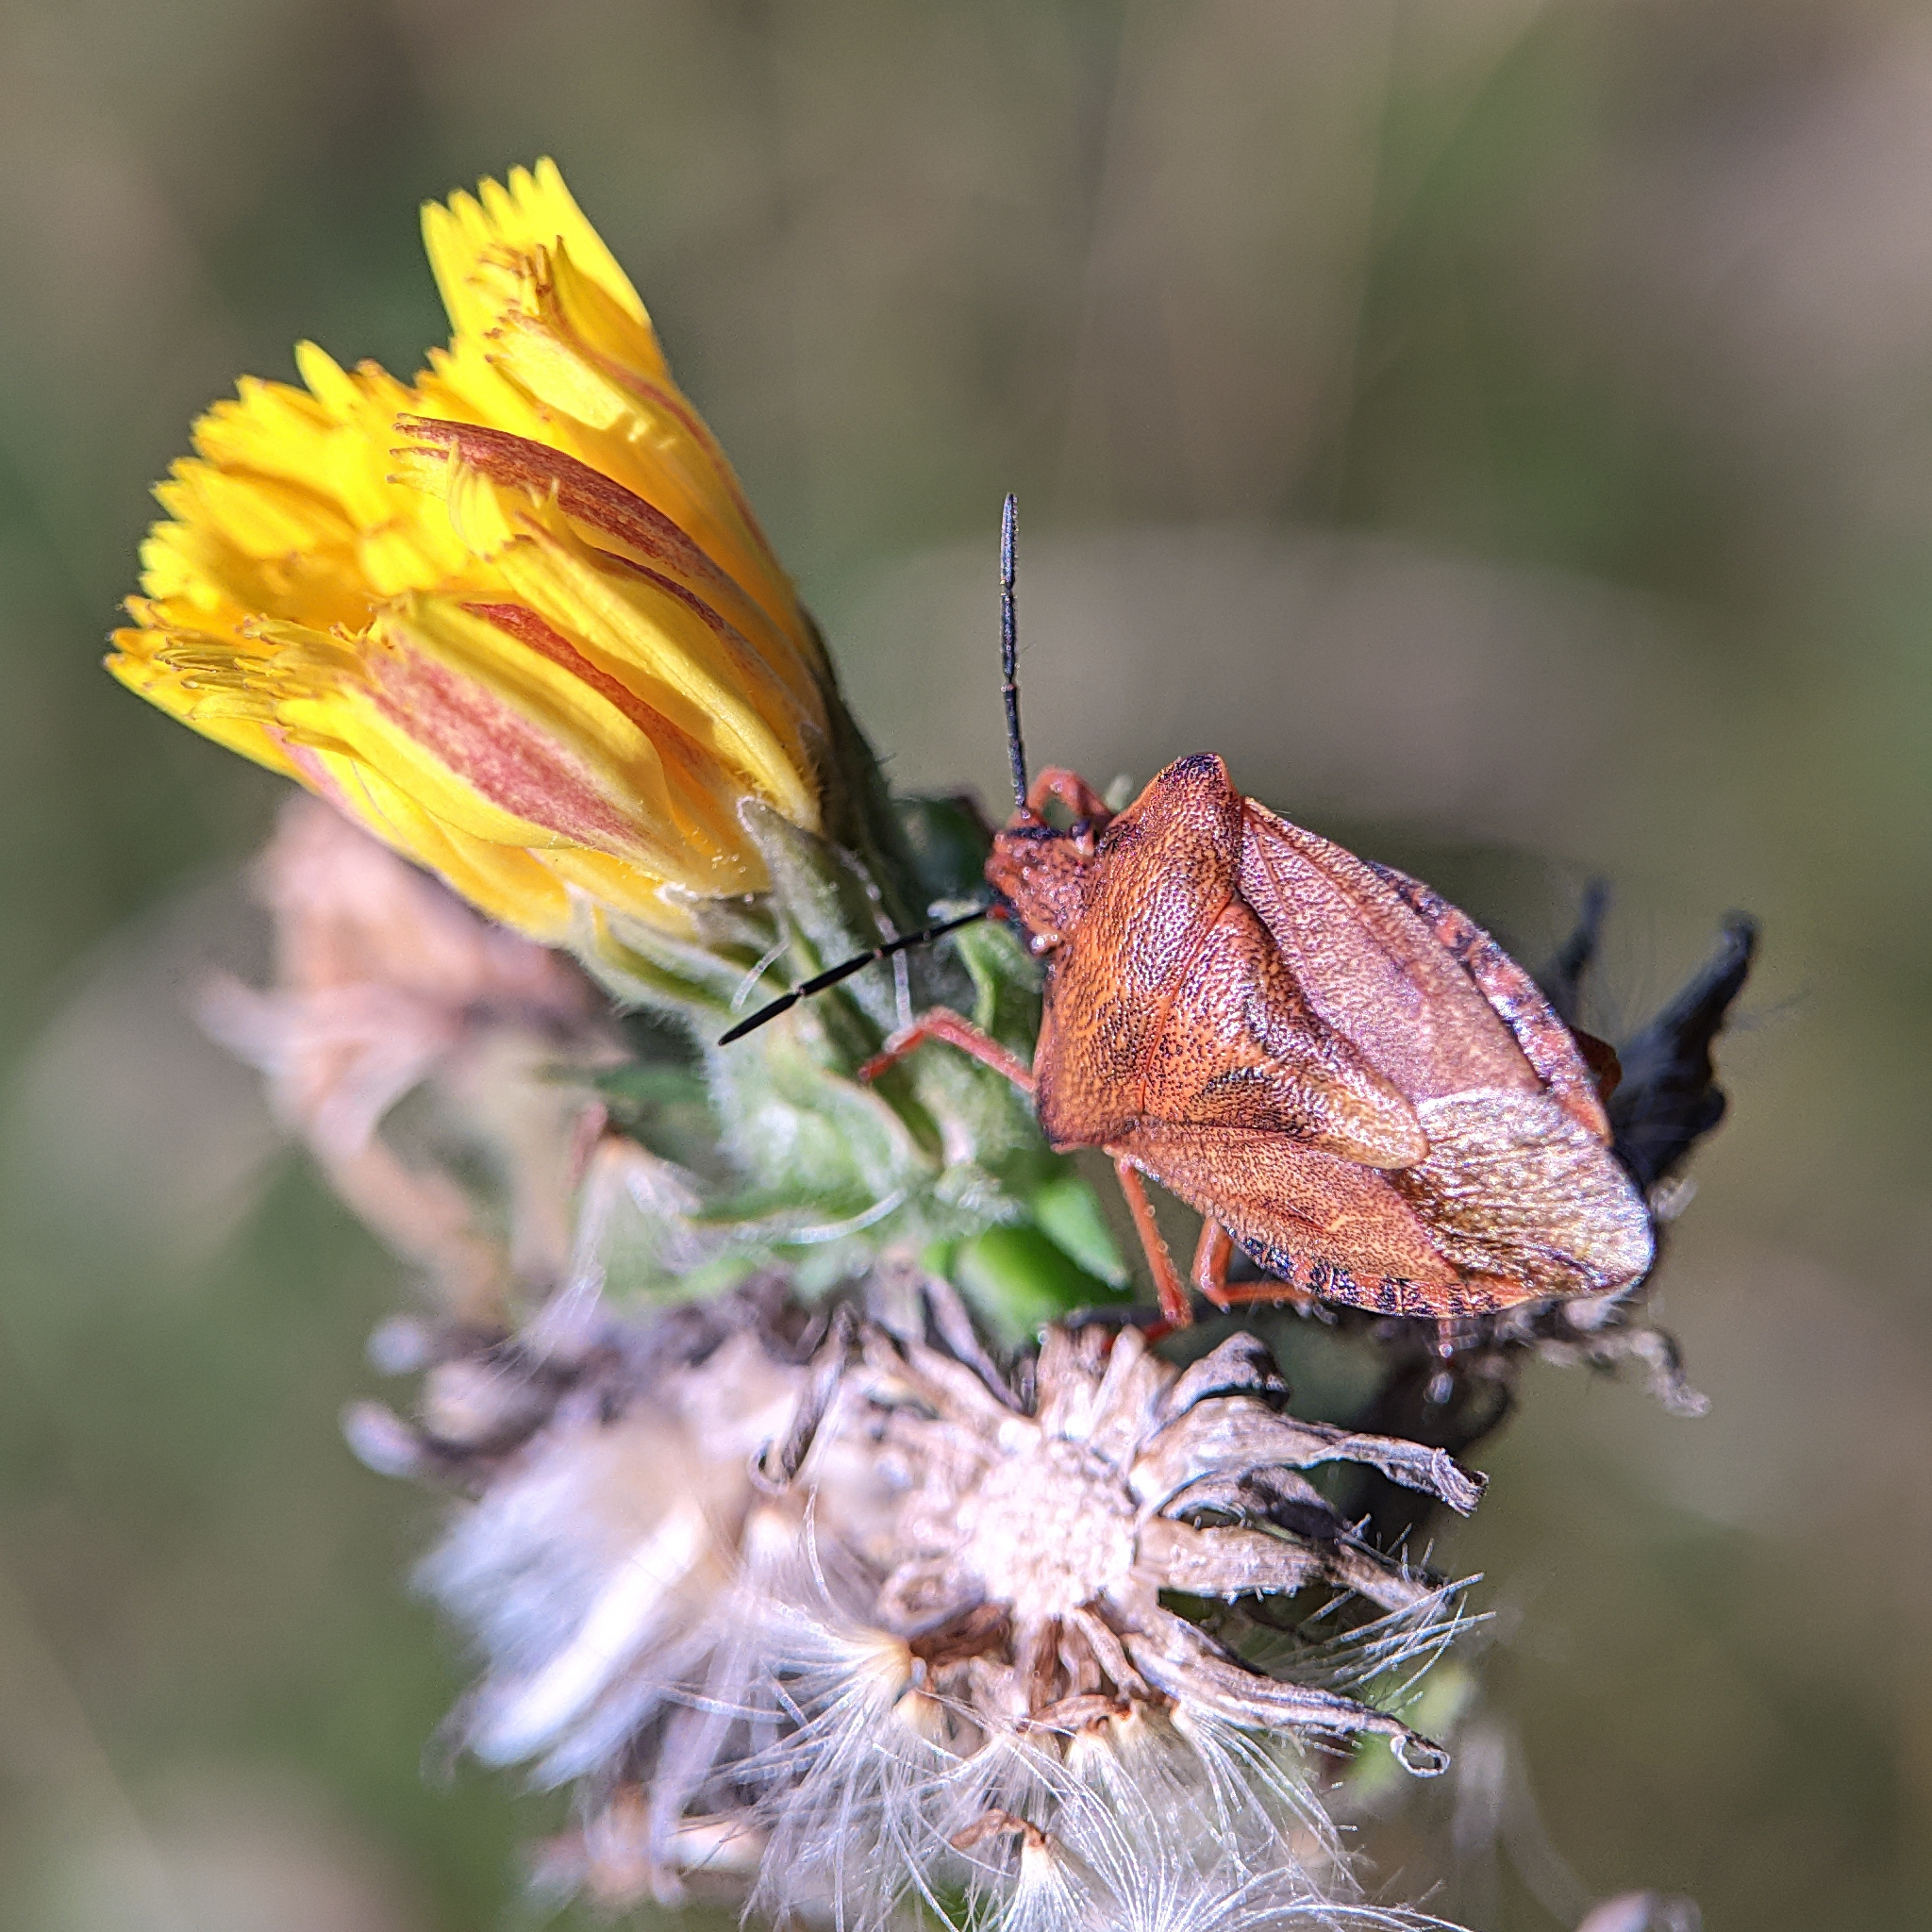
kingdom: Animalia
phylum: Arthropoda
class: Insecta
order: Hemiptera
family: Pentatomidae
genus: Carpocoris
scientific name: Carpocoris purpureipennis
